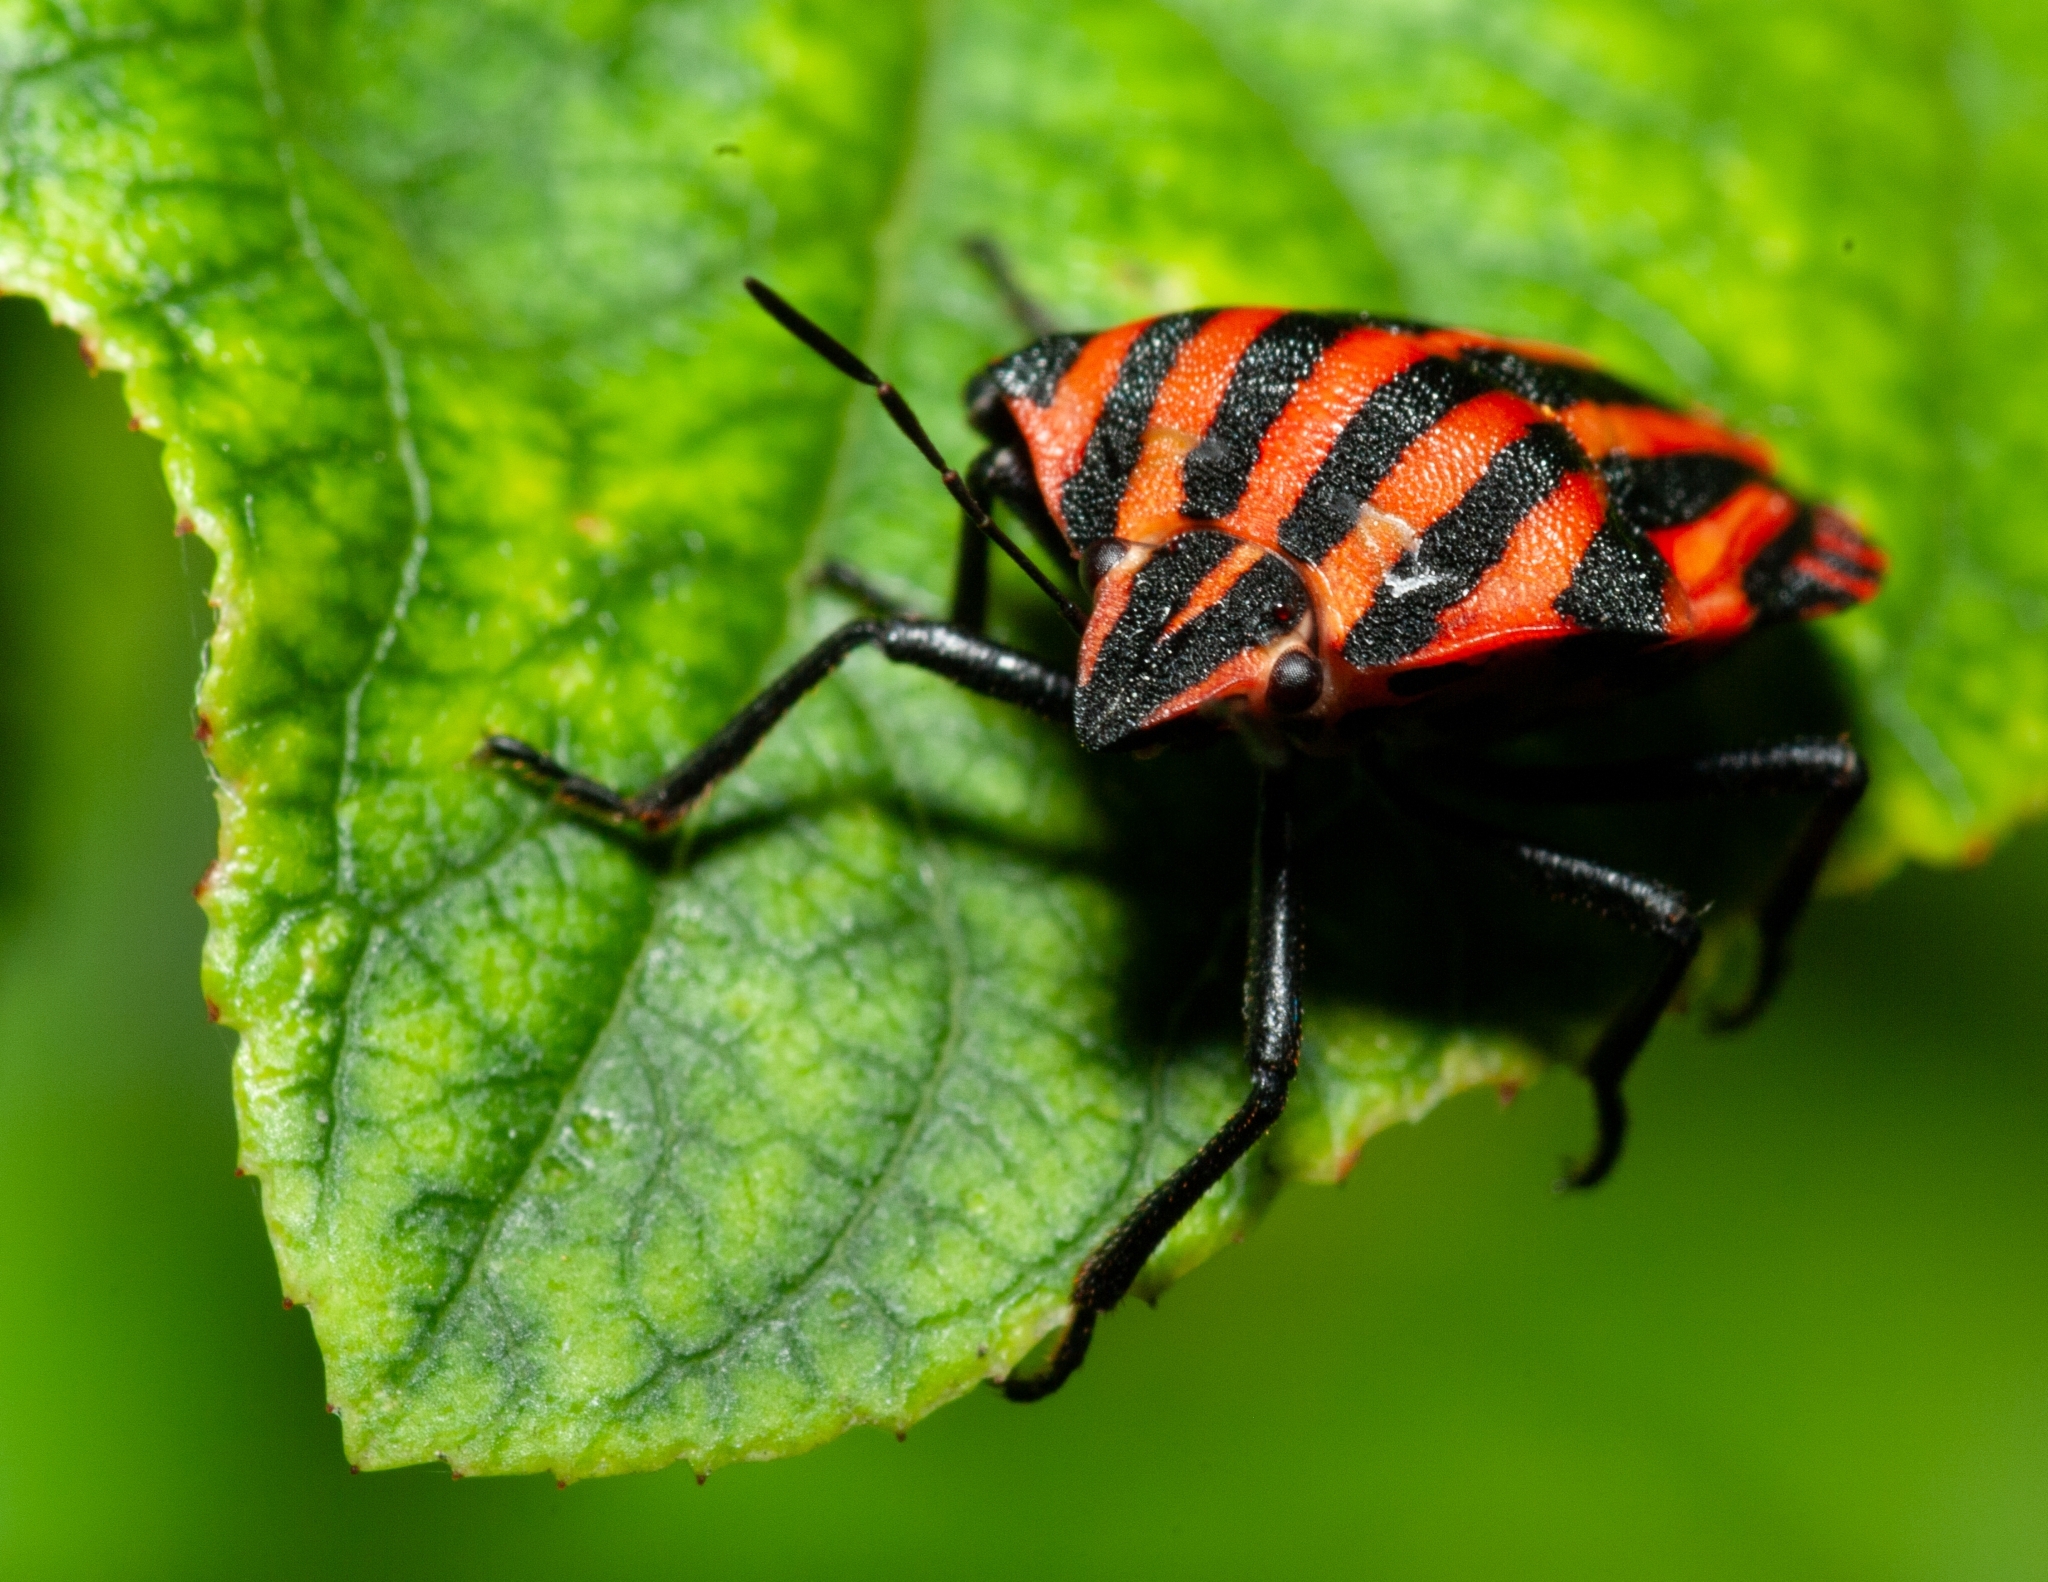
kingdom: Animalia
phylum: Arthropoda
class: Insecta
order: Hemiptera
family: Pentatomidae
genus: Graphosoma
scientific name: Graphosoma italicum
